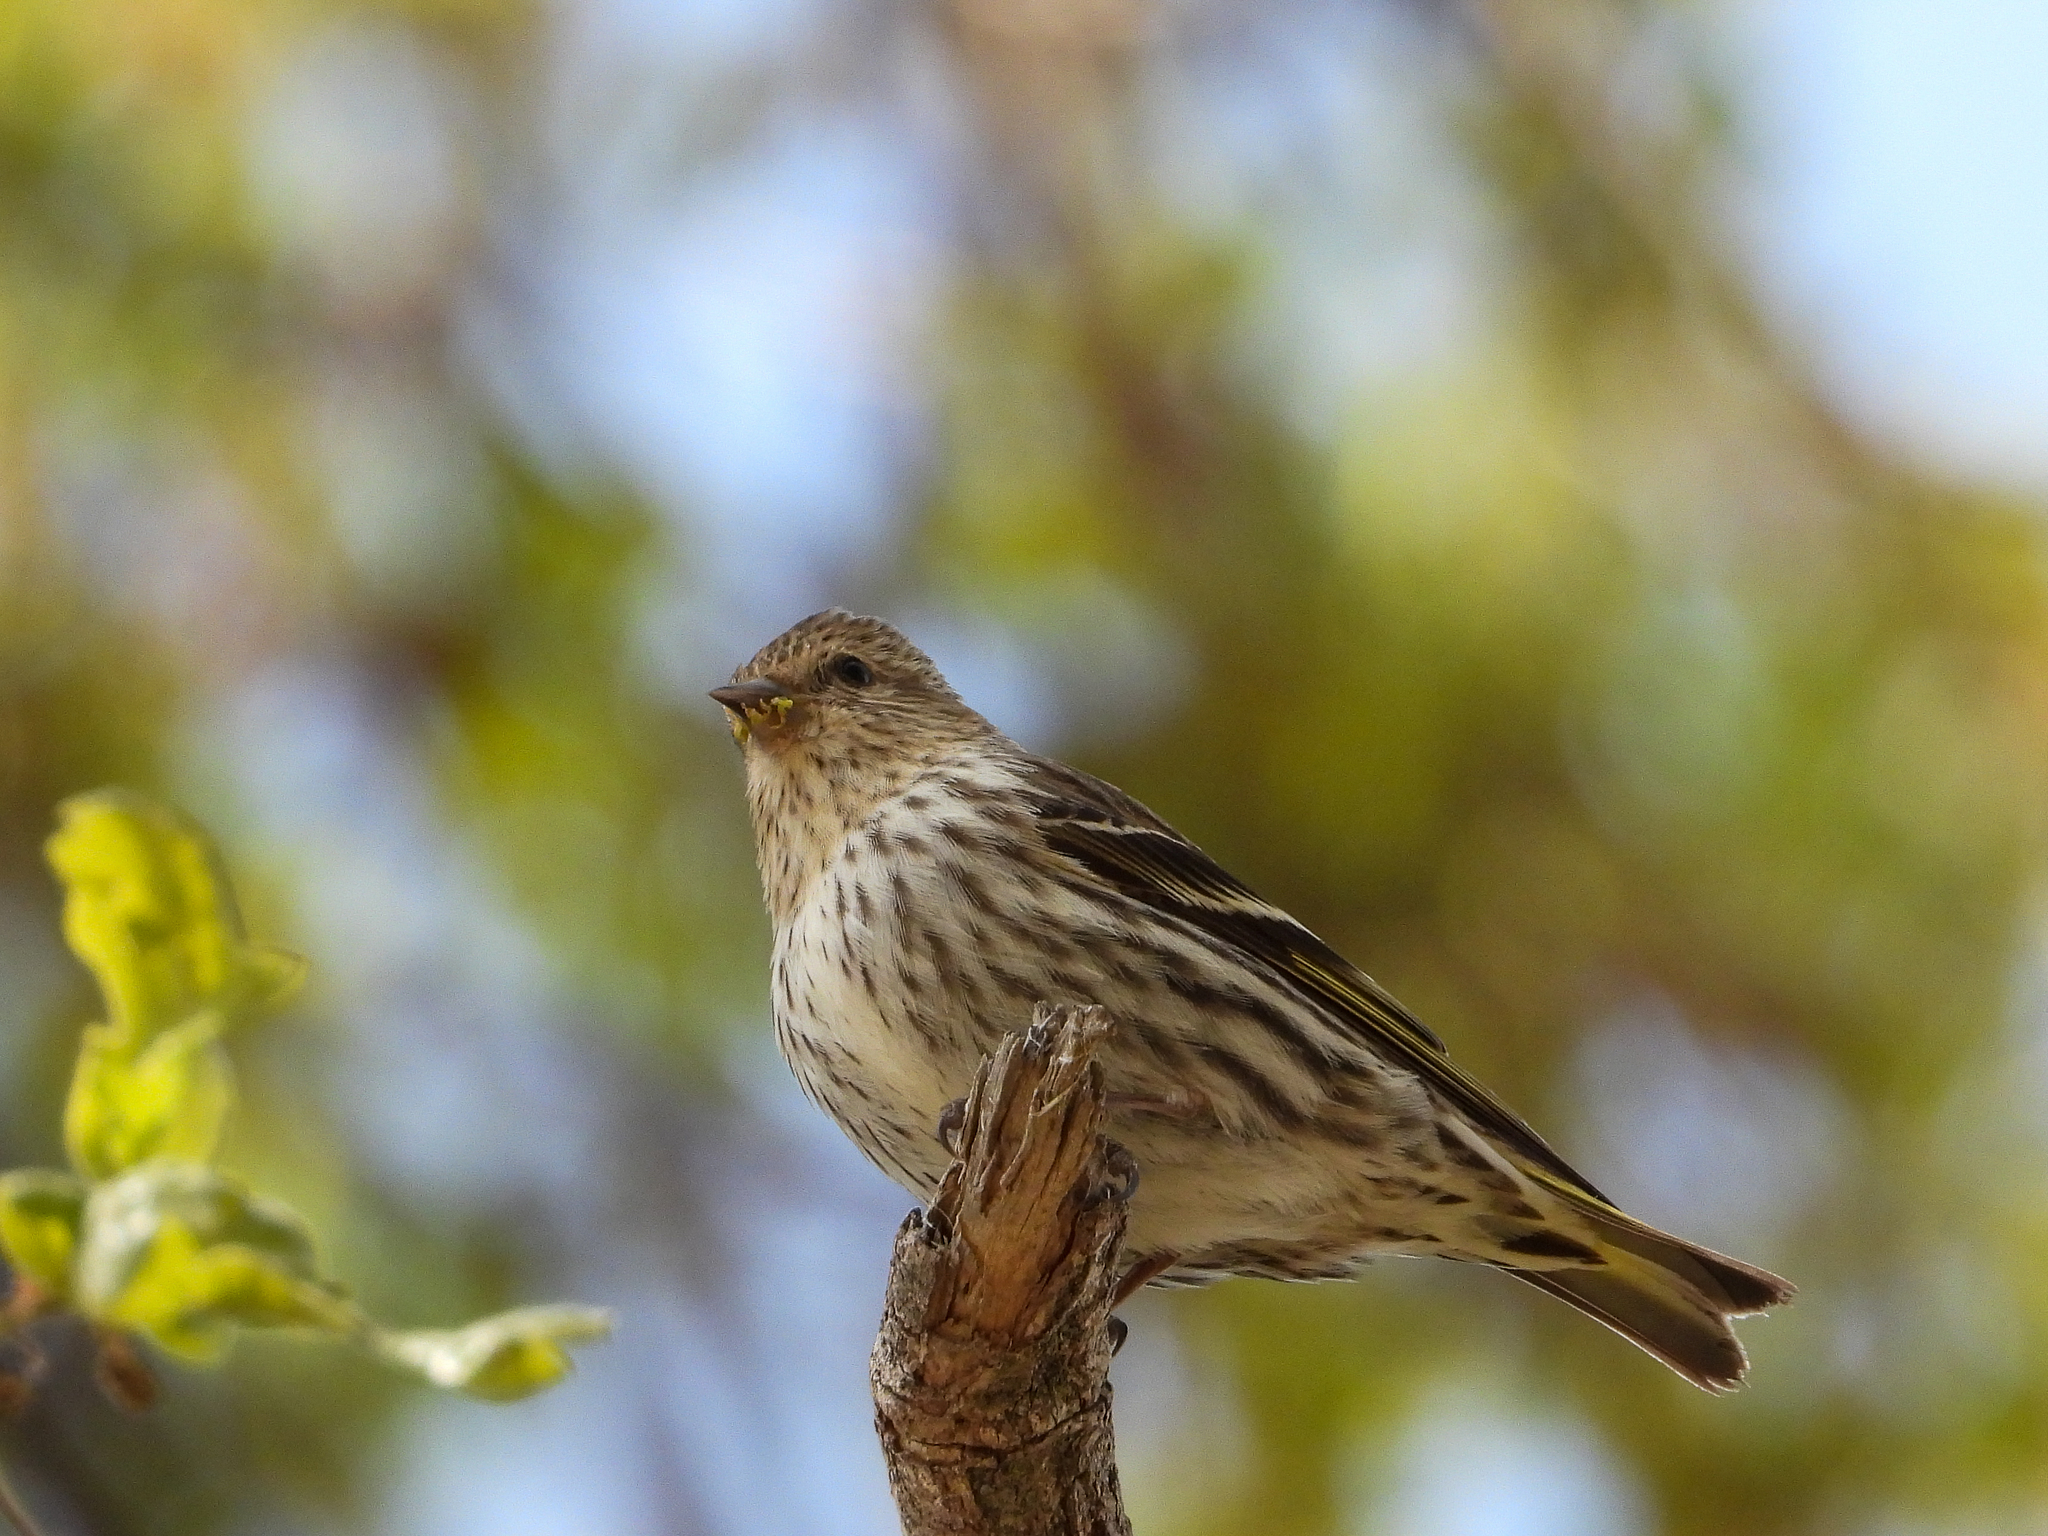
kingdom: Animalia
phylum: Chordata
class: Aves
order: Passeriformes
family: Fringillidae
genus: Spinus
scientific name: Spinus pinus
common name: Pine siskin
